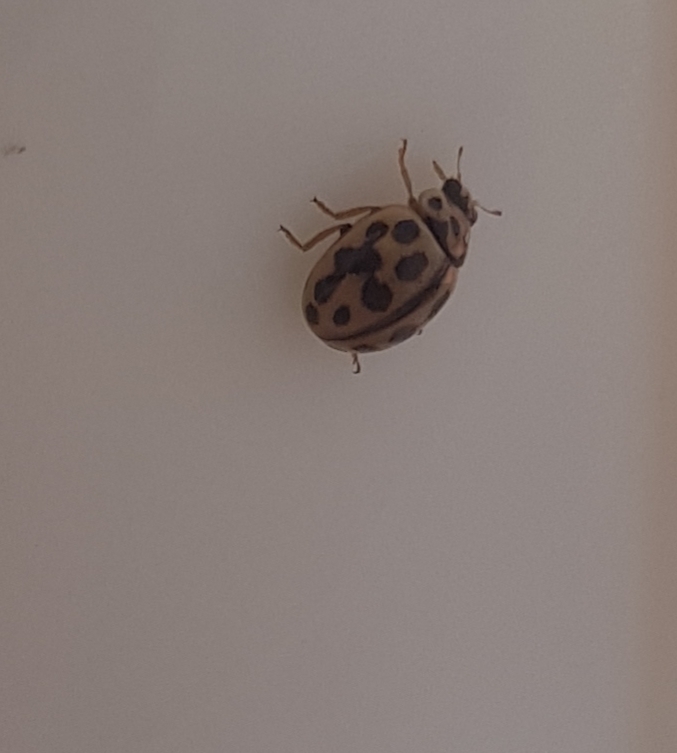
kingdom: Animalia
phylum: Arthropoda
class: Insecta
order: Coleoptera
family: Coccinellidae
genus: Tytthaspis
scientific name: Tytthaspis sedecimpunctata
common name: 16-spot ladybird
